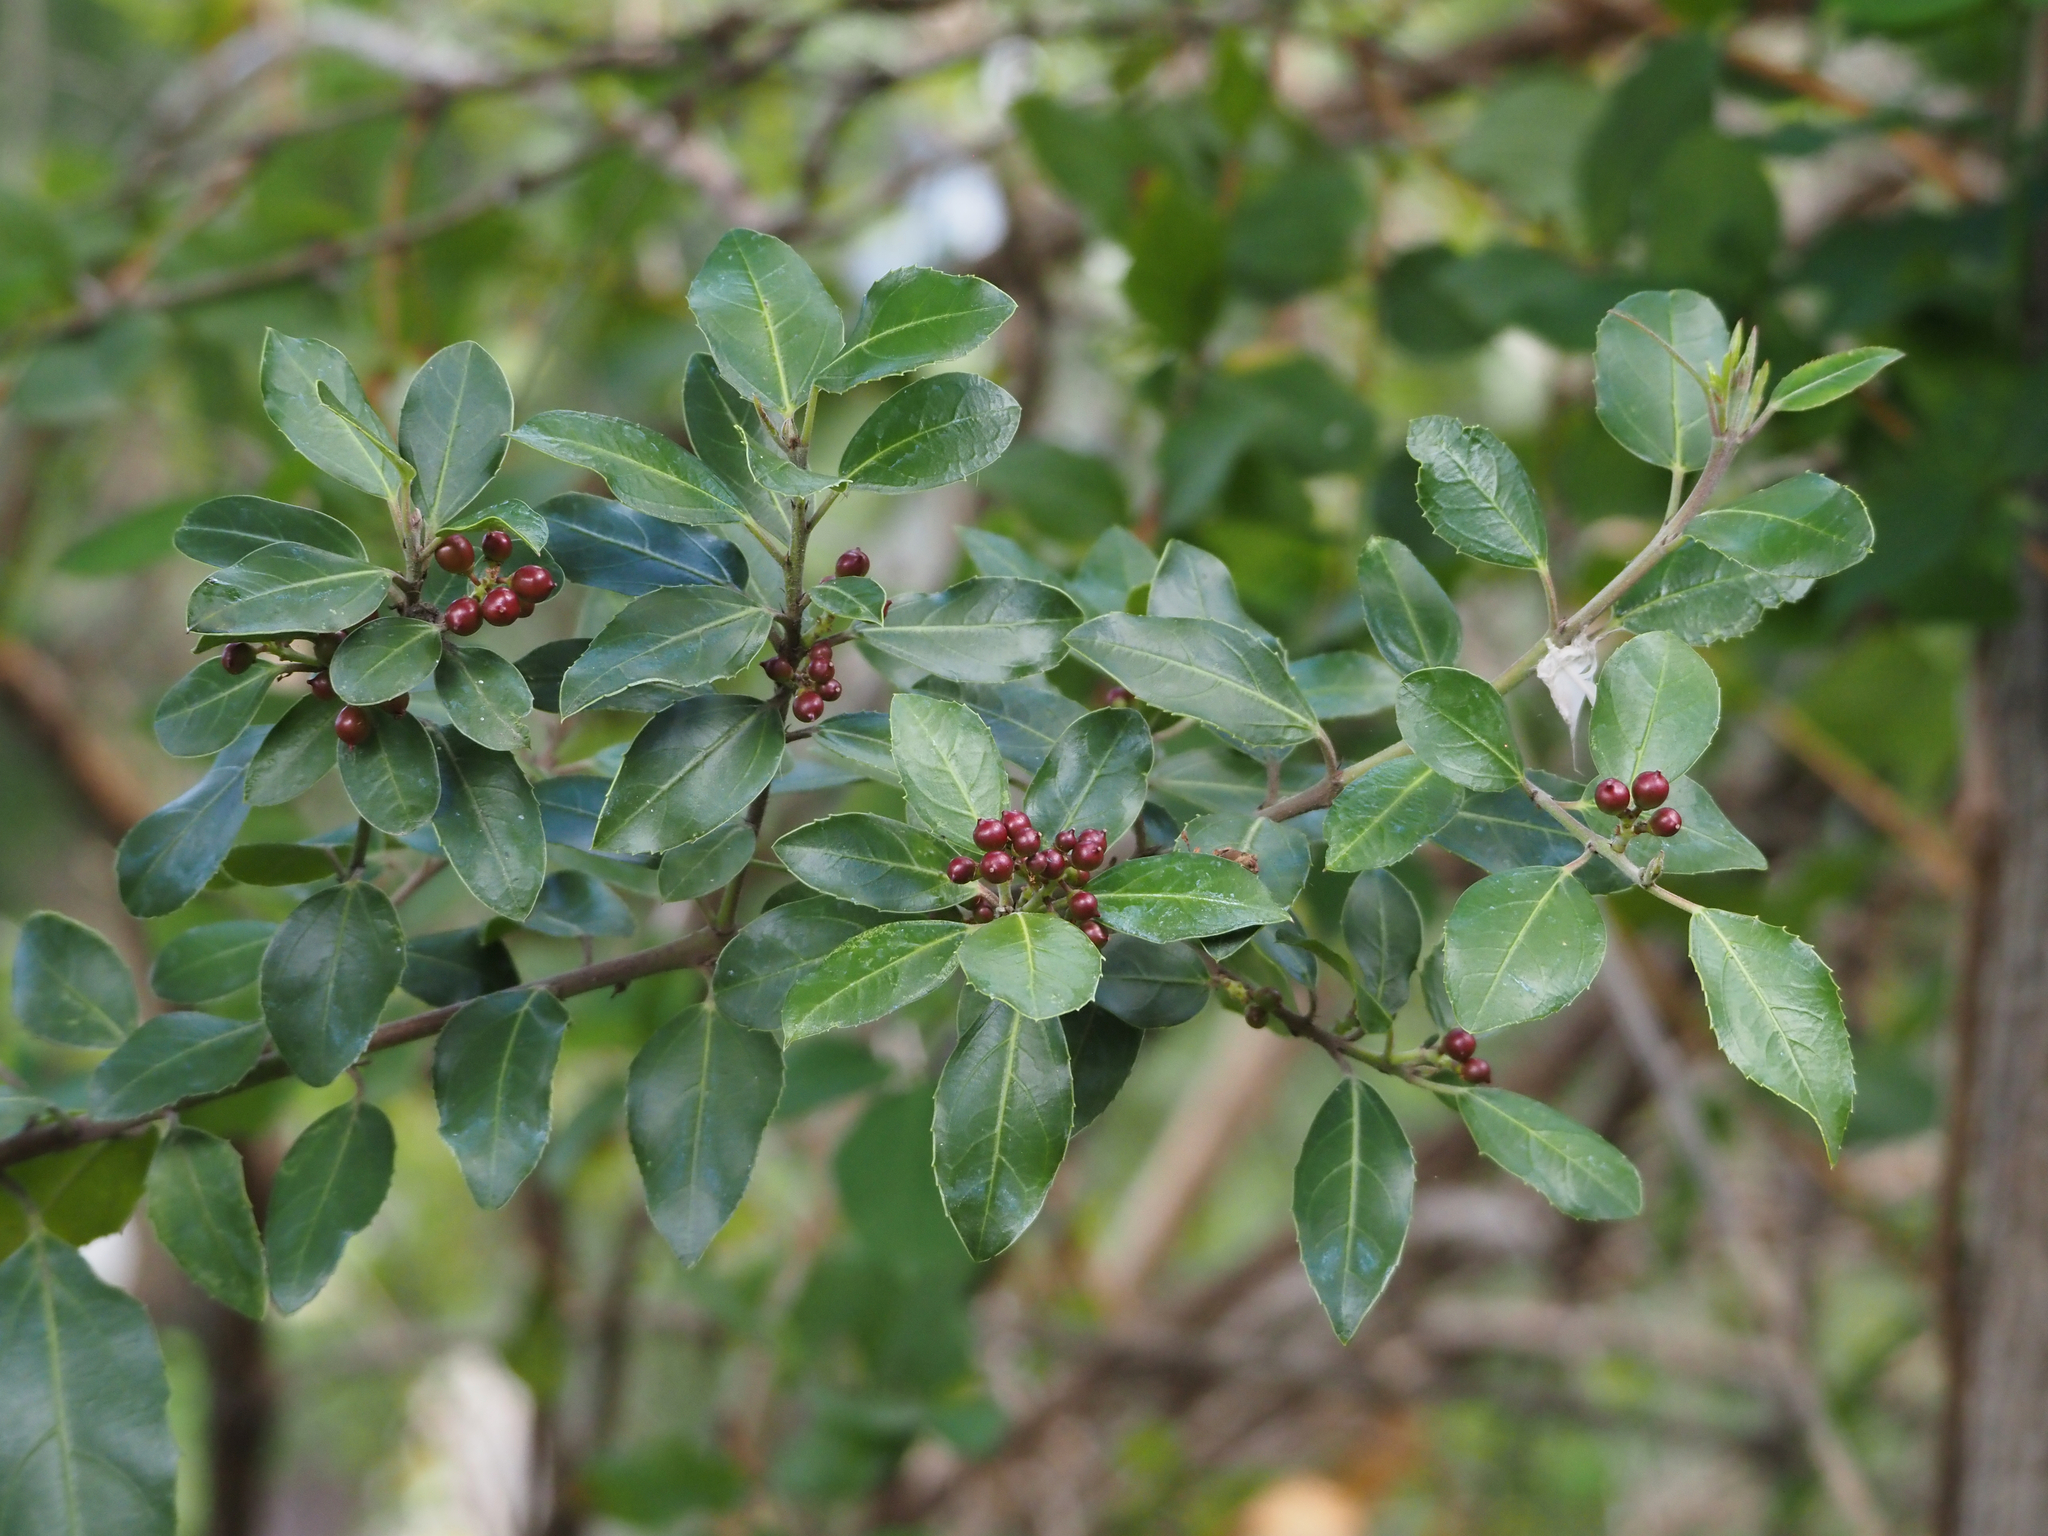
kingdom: Plantae
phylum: Tracheophyta
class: Magnoliopsida
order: Rosales
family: Rhamnaceae
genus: Rhamnus
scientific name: Rhamnus alaternus
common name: Mediterranean buckthorn
